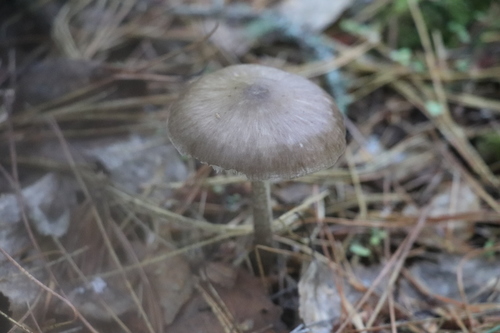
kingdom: Fungi
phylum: Basidiomycota
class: Agaricomycetes
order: Agaricales
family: Pluteaceae
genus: Pluteus
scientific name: Pluteus
